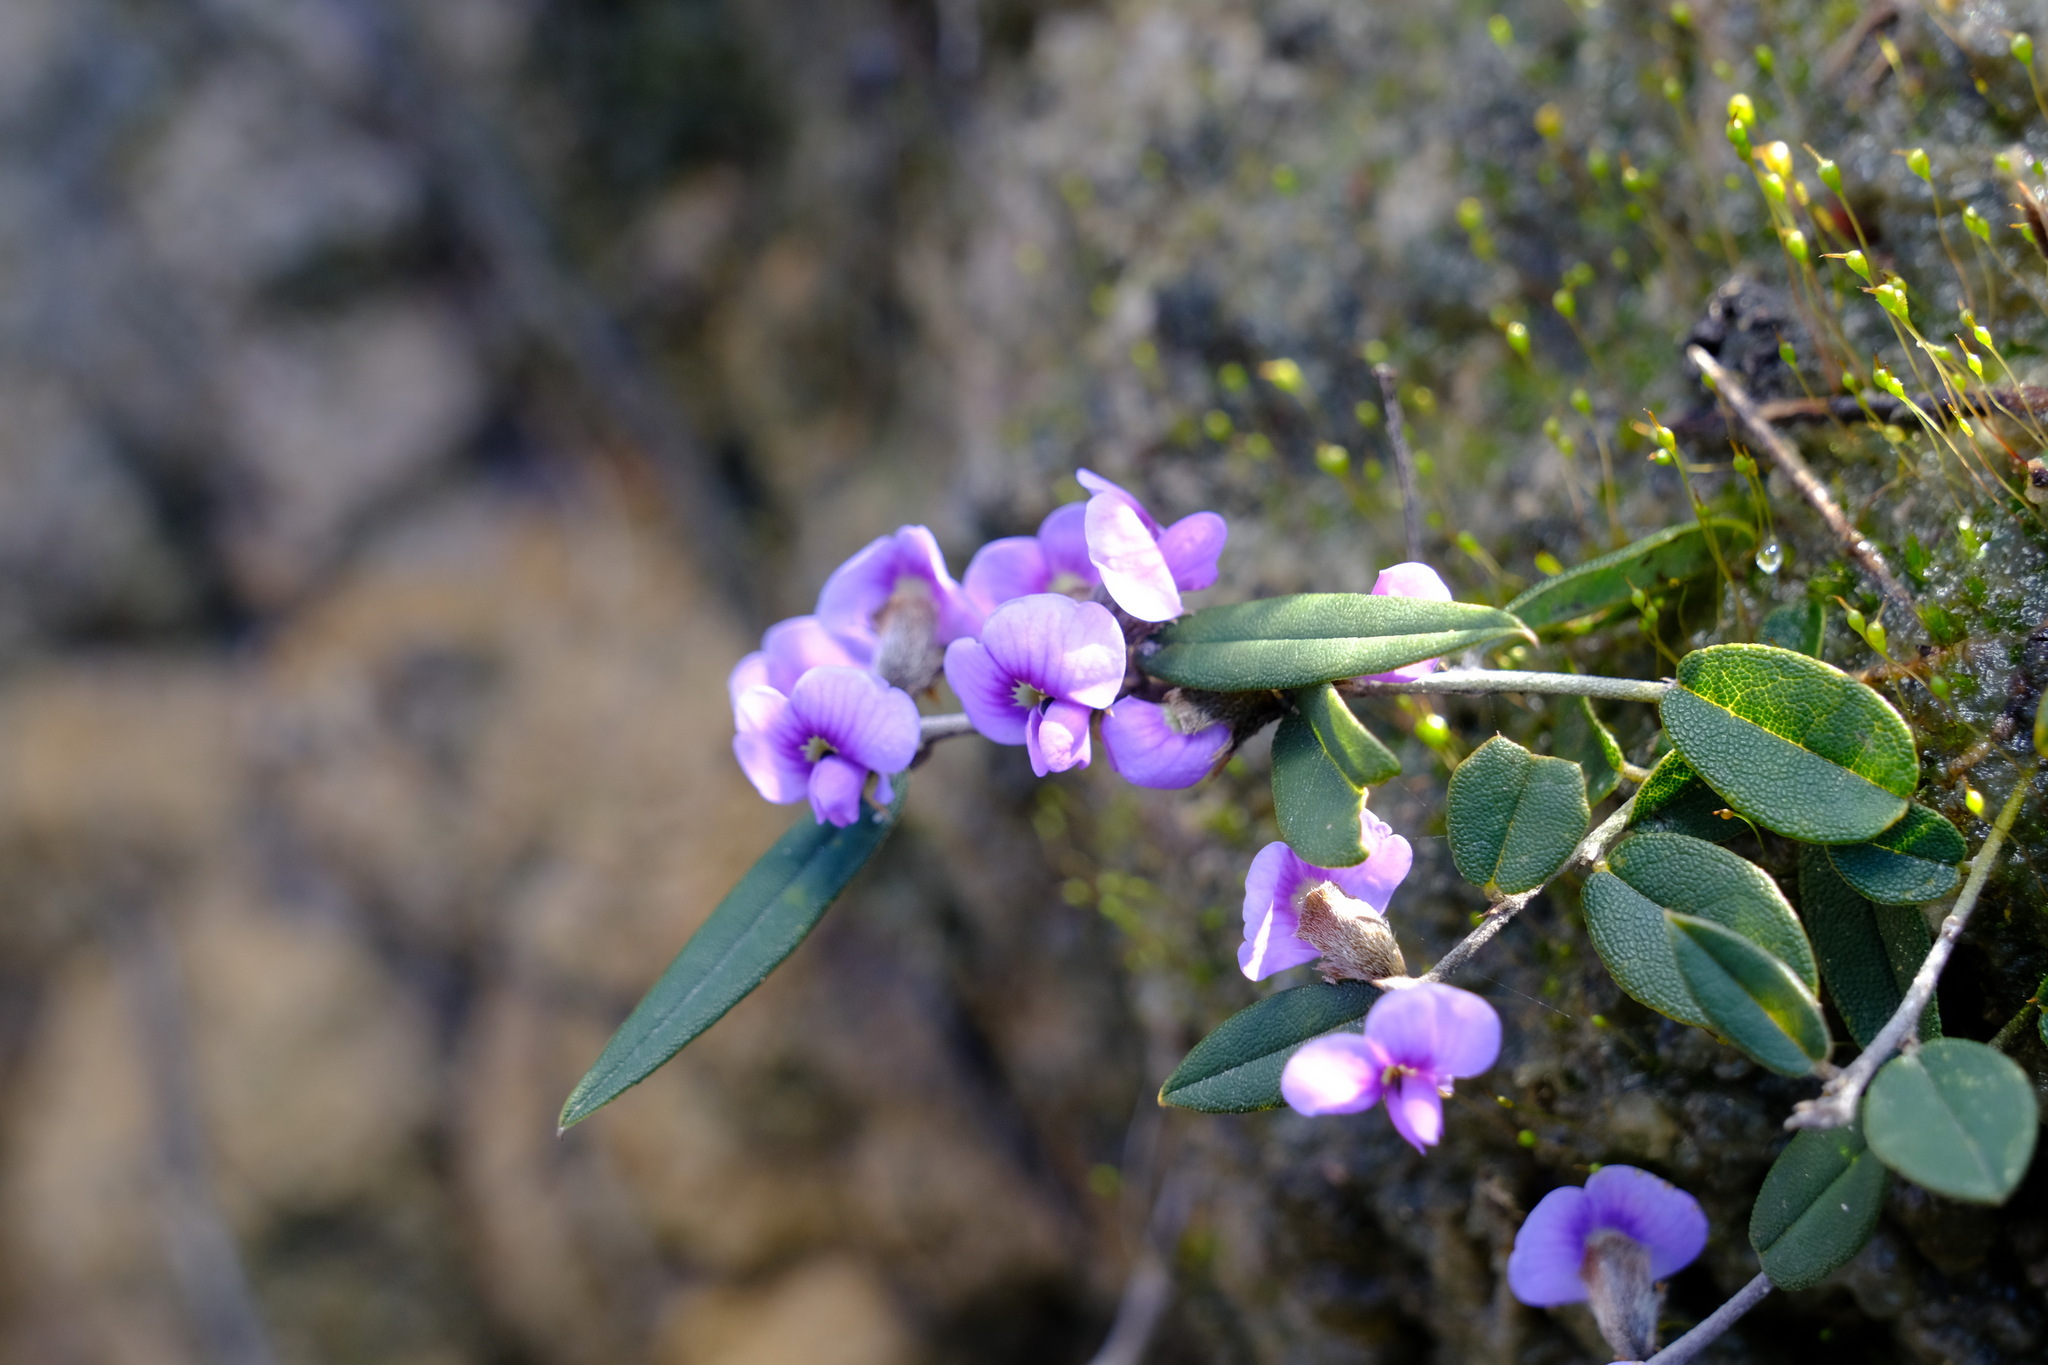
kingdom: Plantae
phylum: Tracheophyta
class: Magnoliopsida
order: Fabales
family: Fabaceae
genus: Hovea
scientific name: Hovea heterophylla
